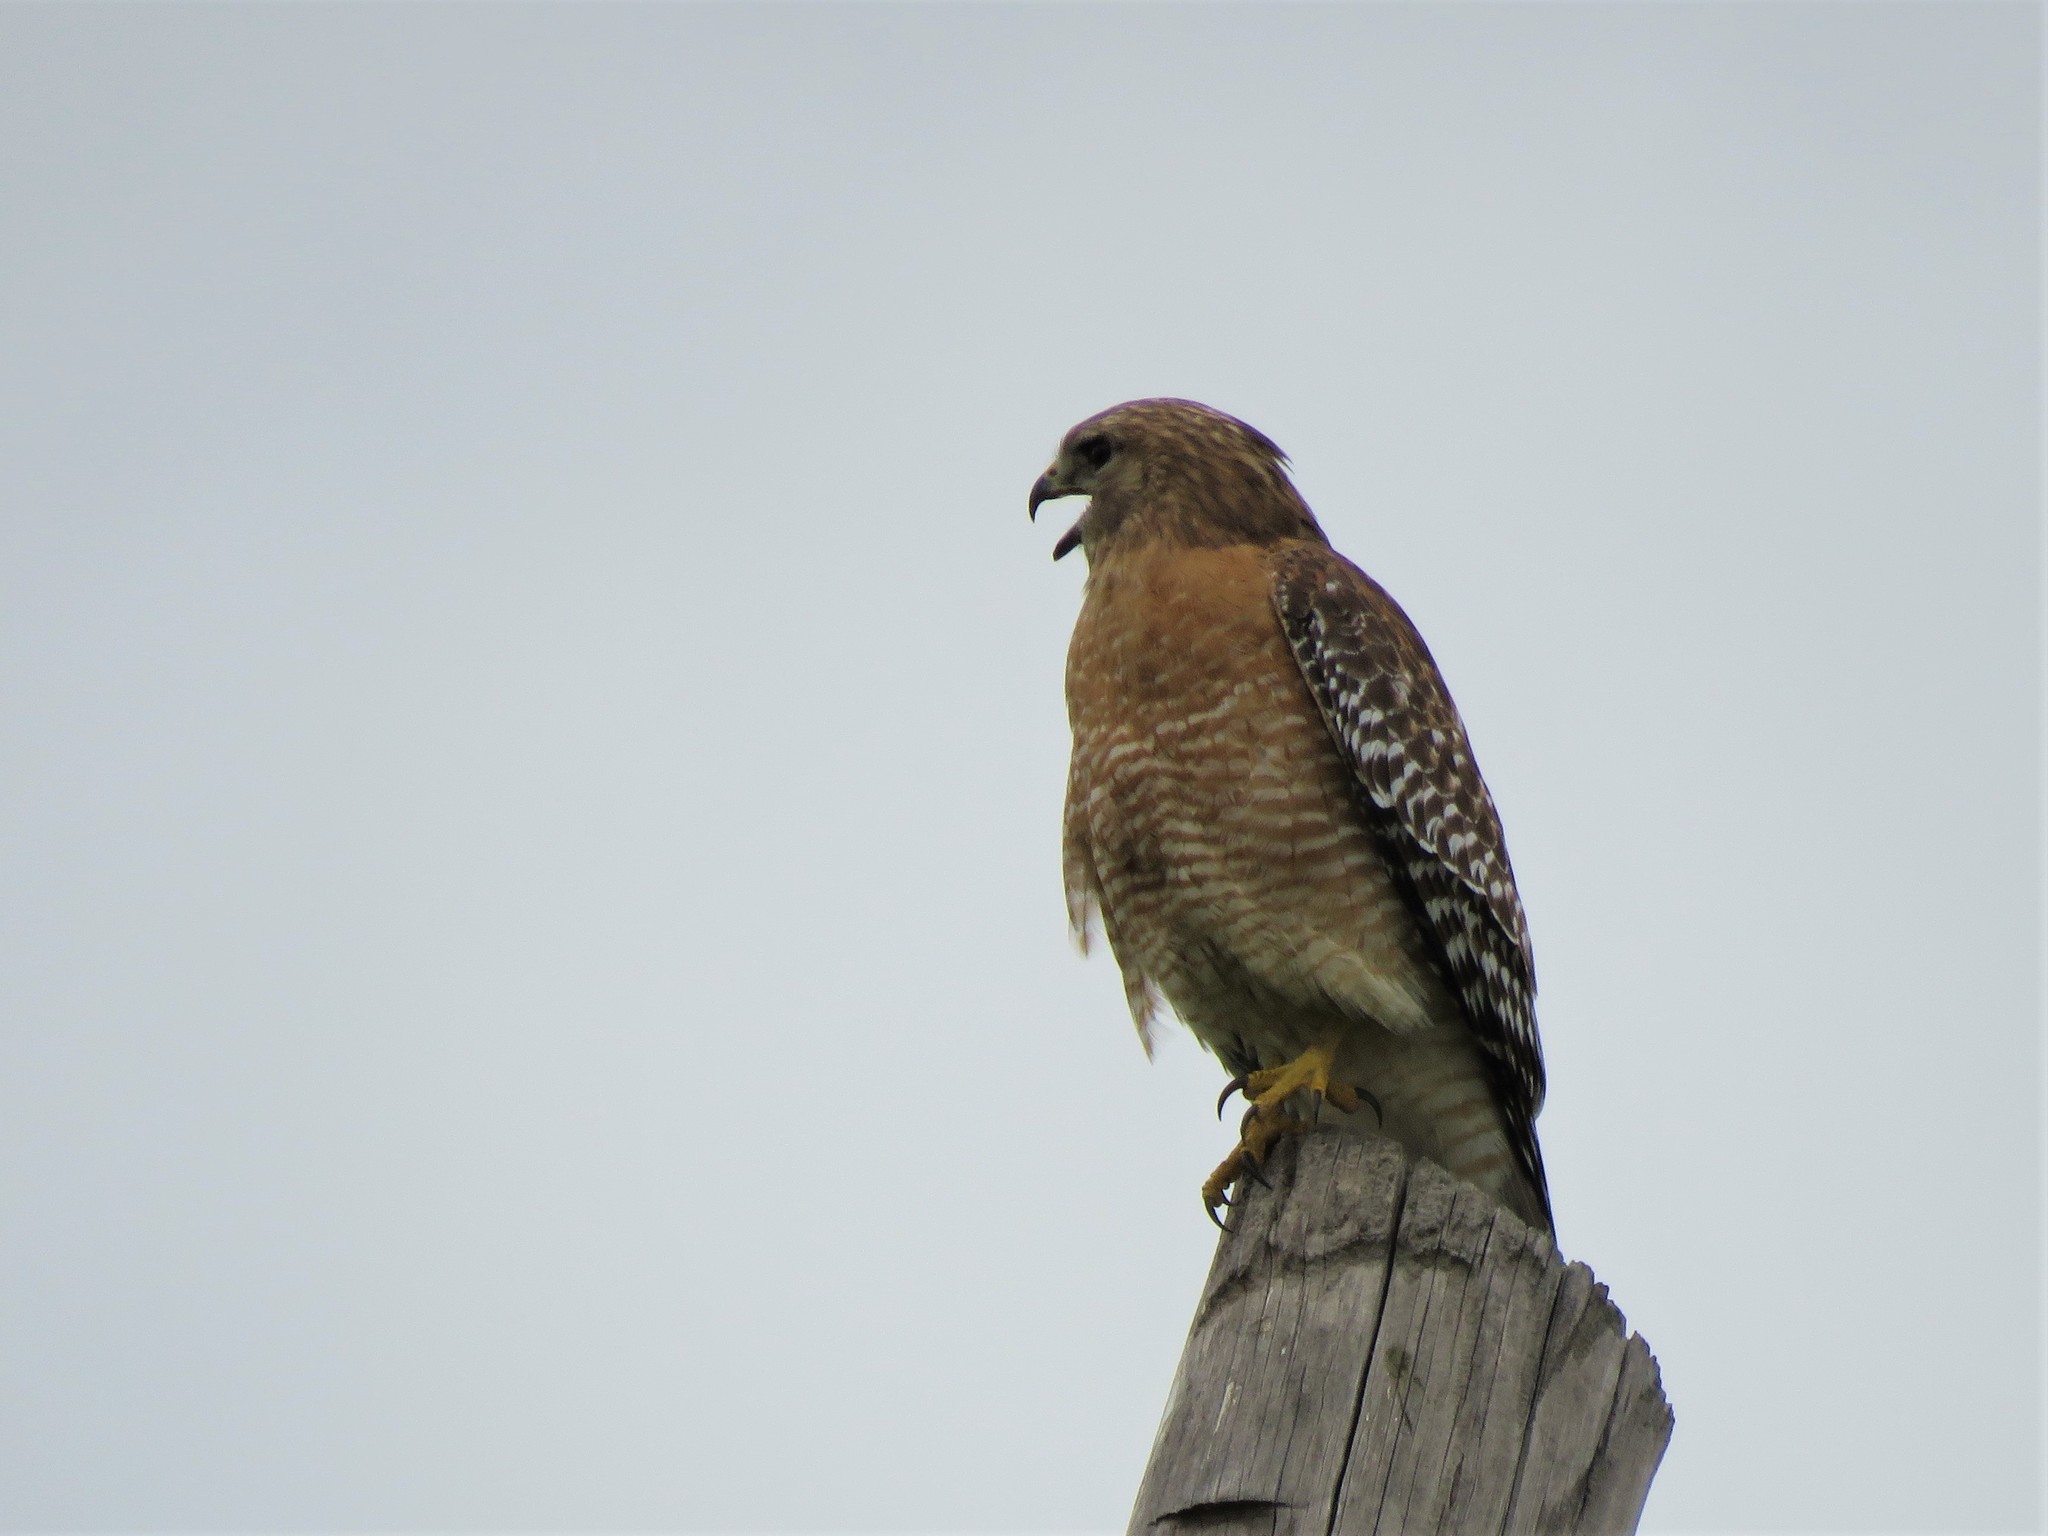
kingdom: Animalia
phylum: Chordata
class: Aves
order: Accipitriformes
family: Accipitridae
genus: Buteo
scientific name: Buteo lineatus
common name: Red-shouldered hawk
